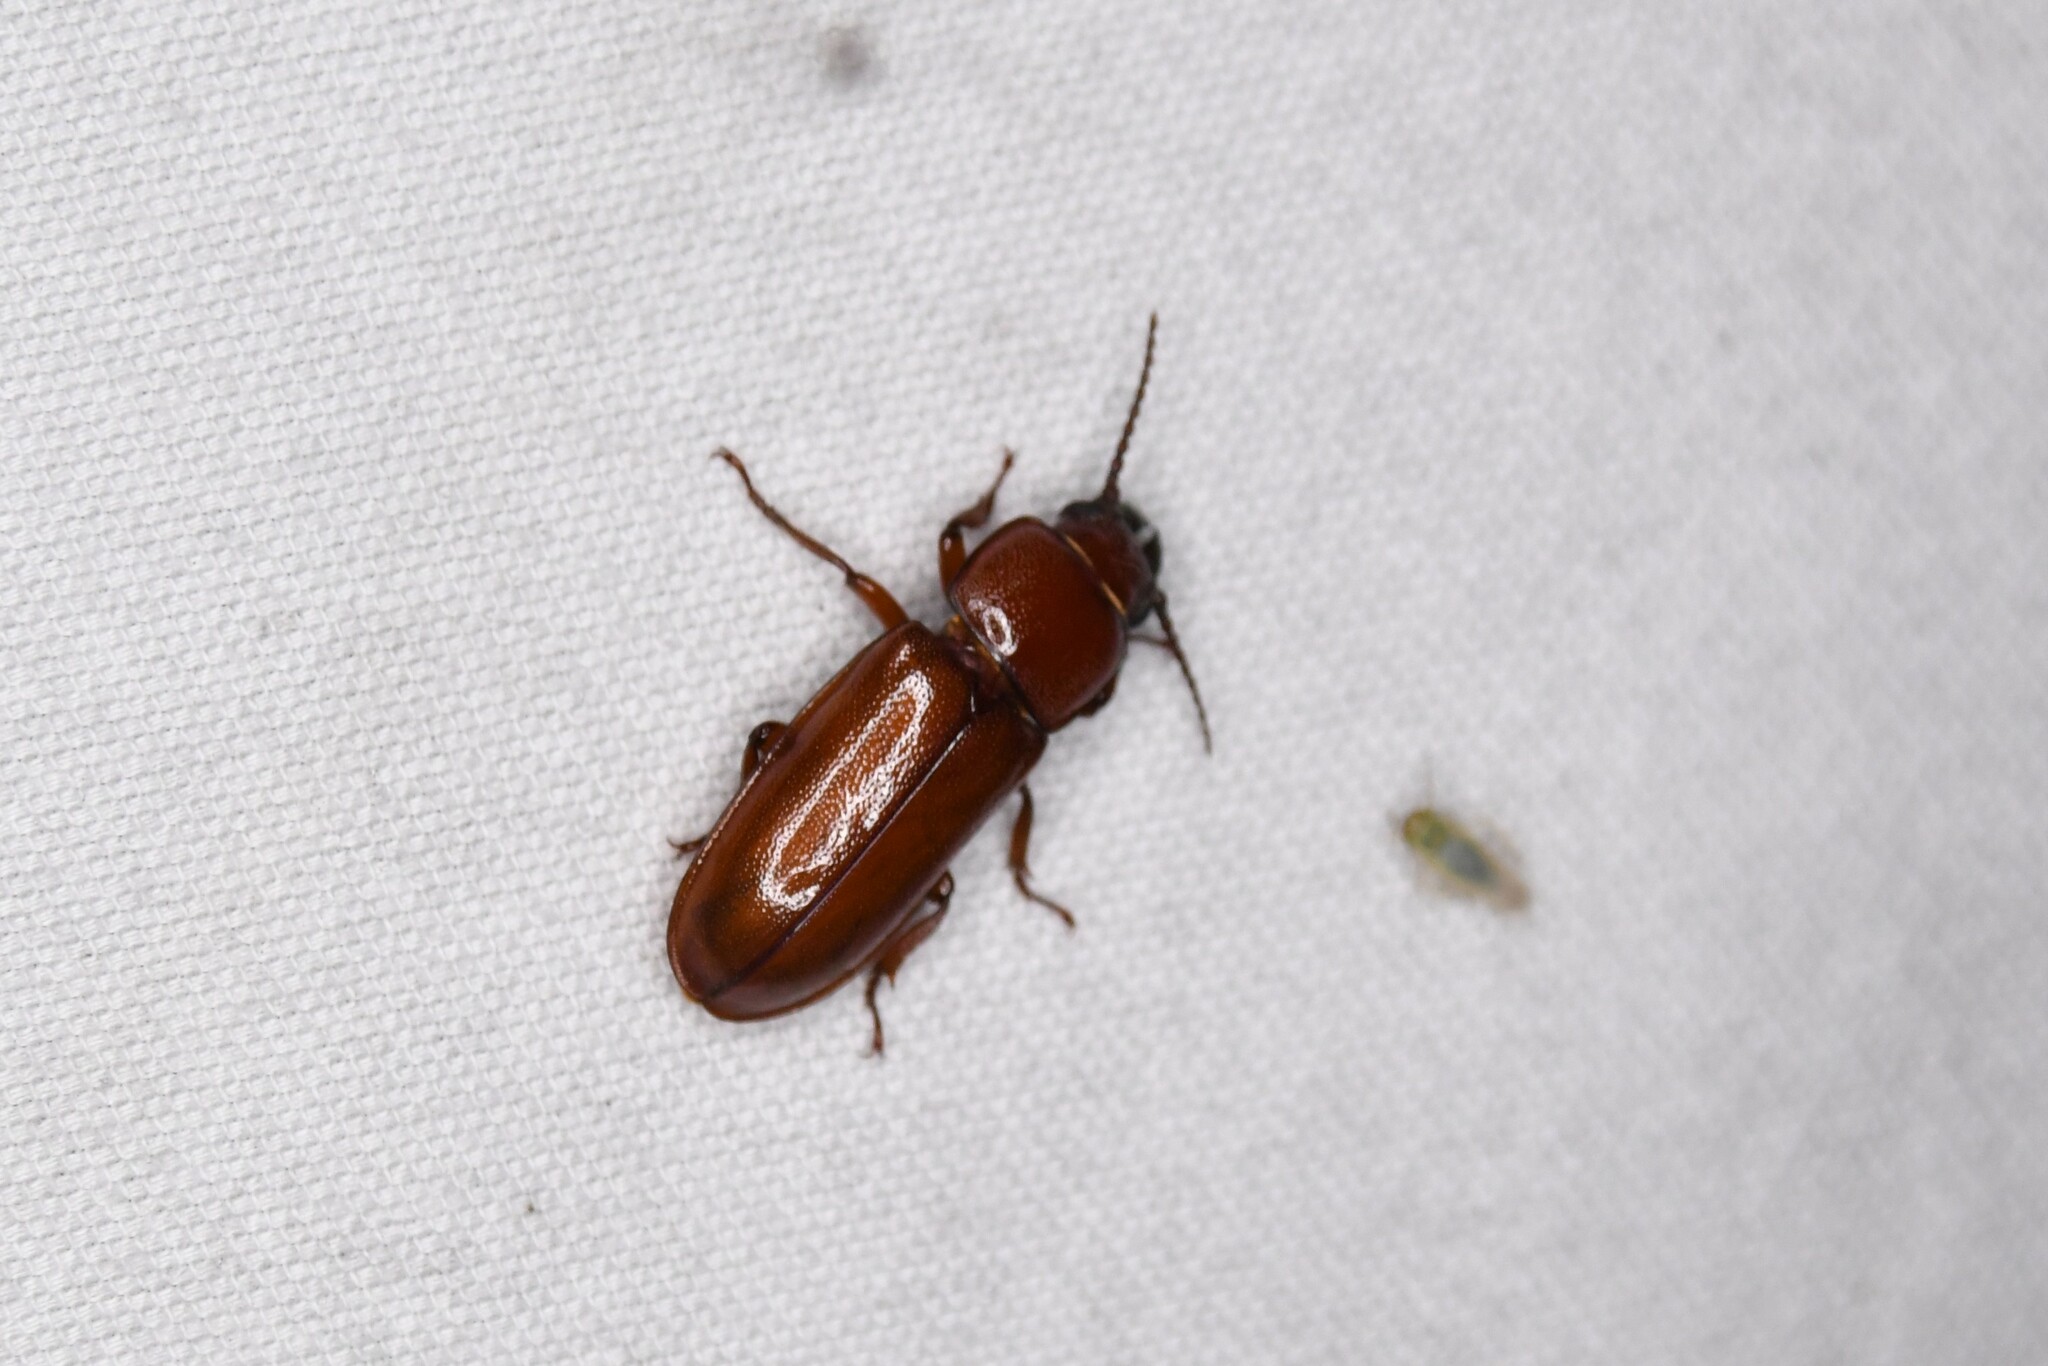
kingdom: Animalia
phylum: Arthropoda
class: Insecta
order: Coleoptera
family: Cerambycidae
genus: Neandra
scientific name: Neandra brunnea
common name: Pole borer
